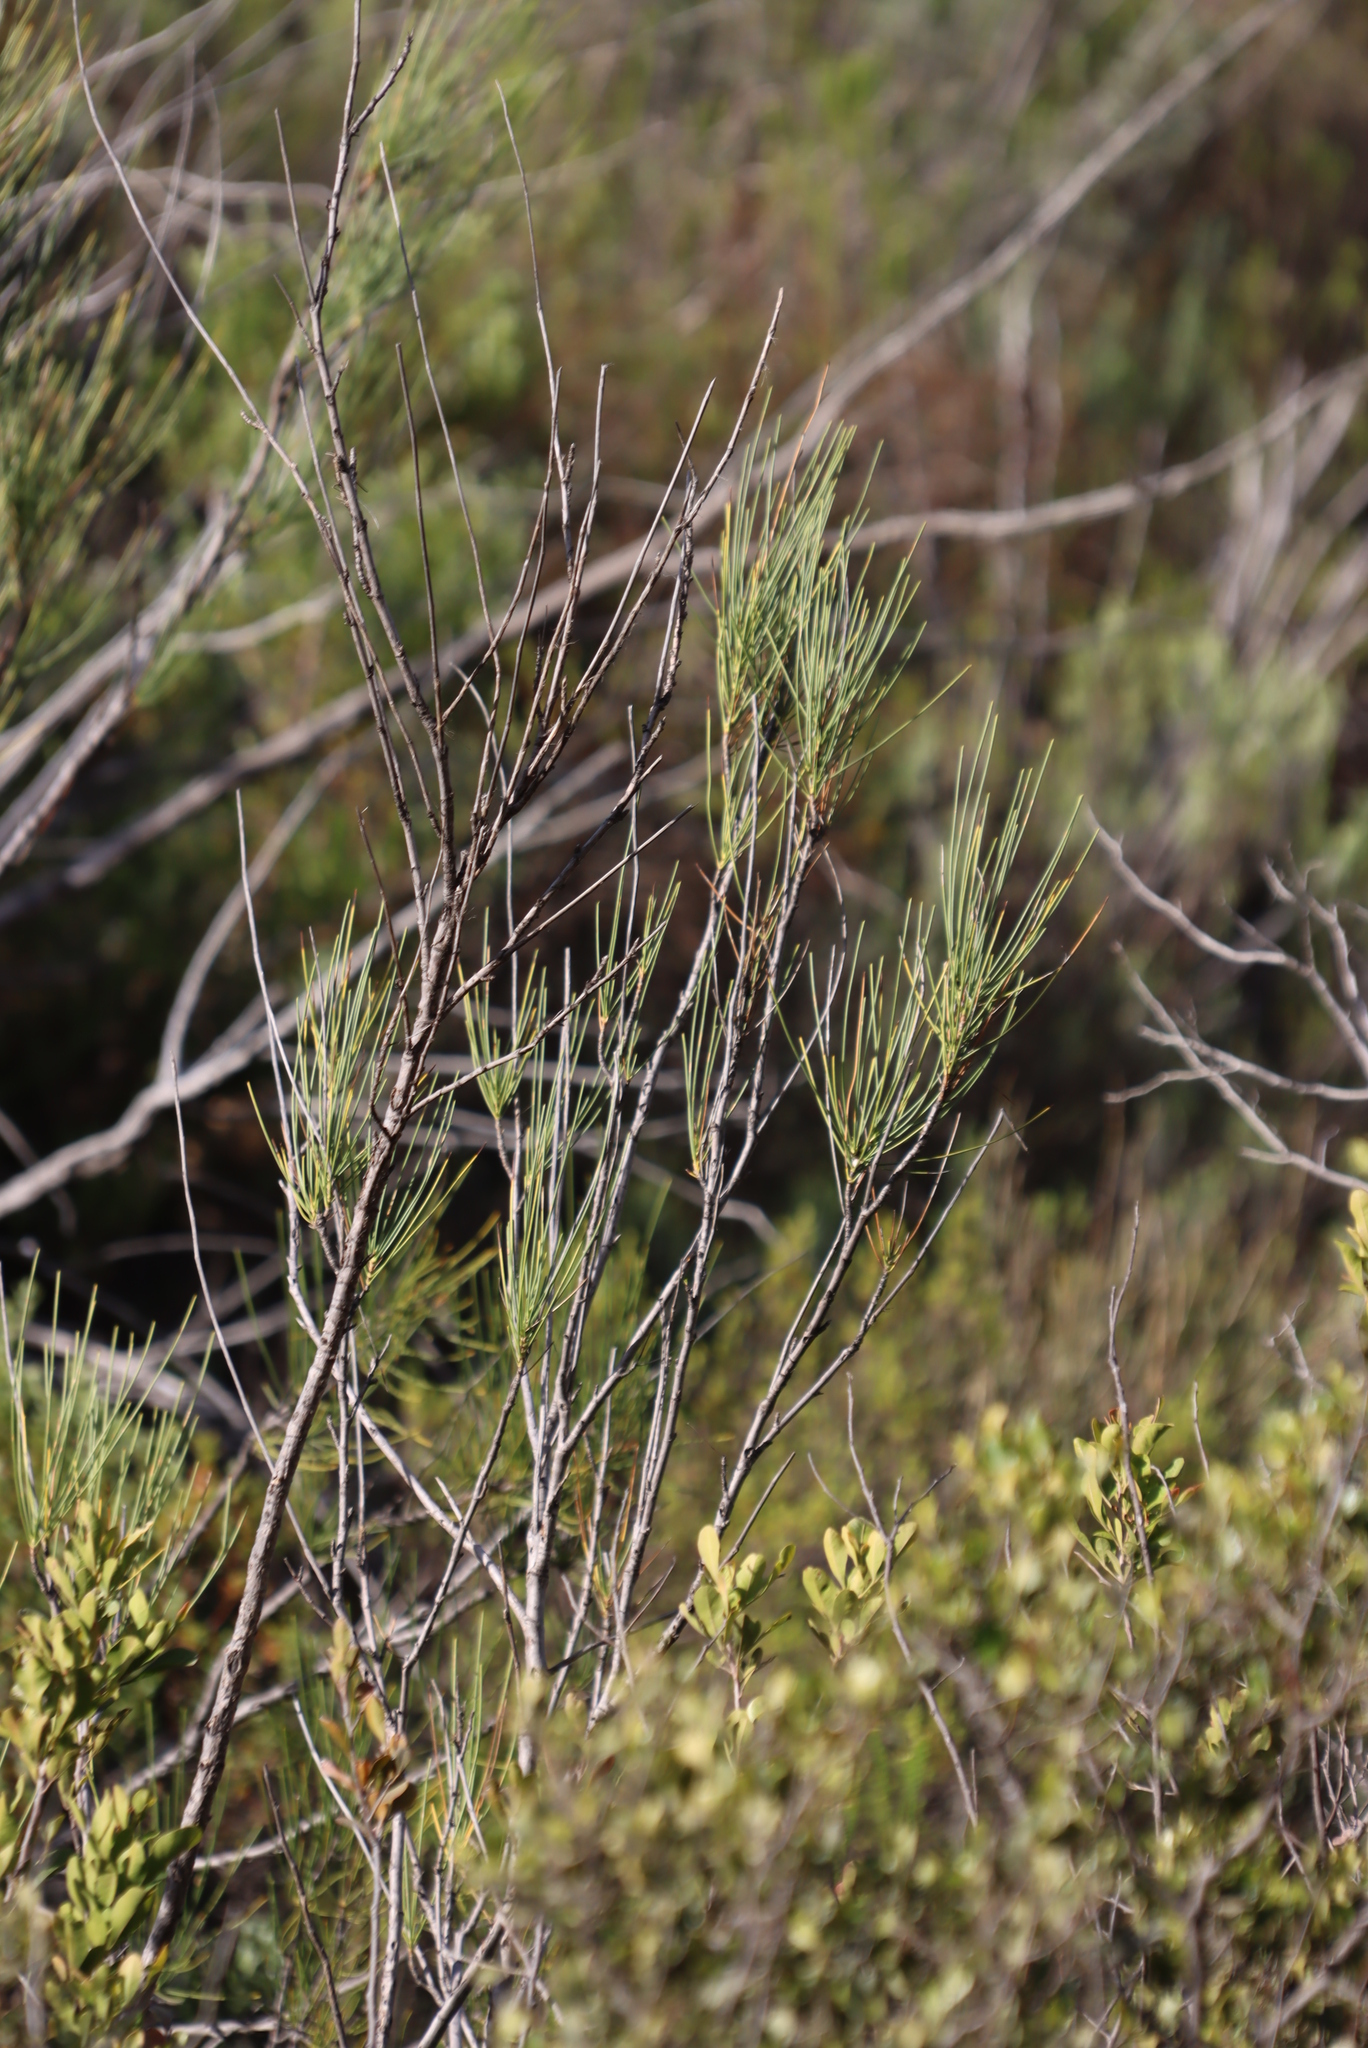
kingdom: Plantae
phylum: Tracheophyta
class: Magnoliopsida
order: Apiales
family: Apiaceae
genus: Anginon
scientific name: Anginon difforme
